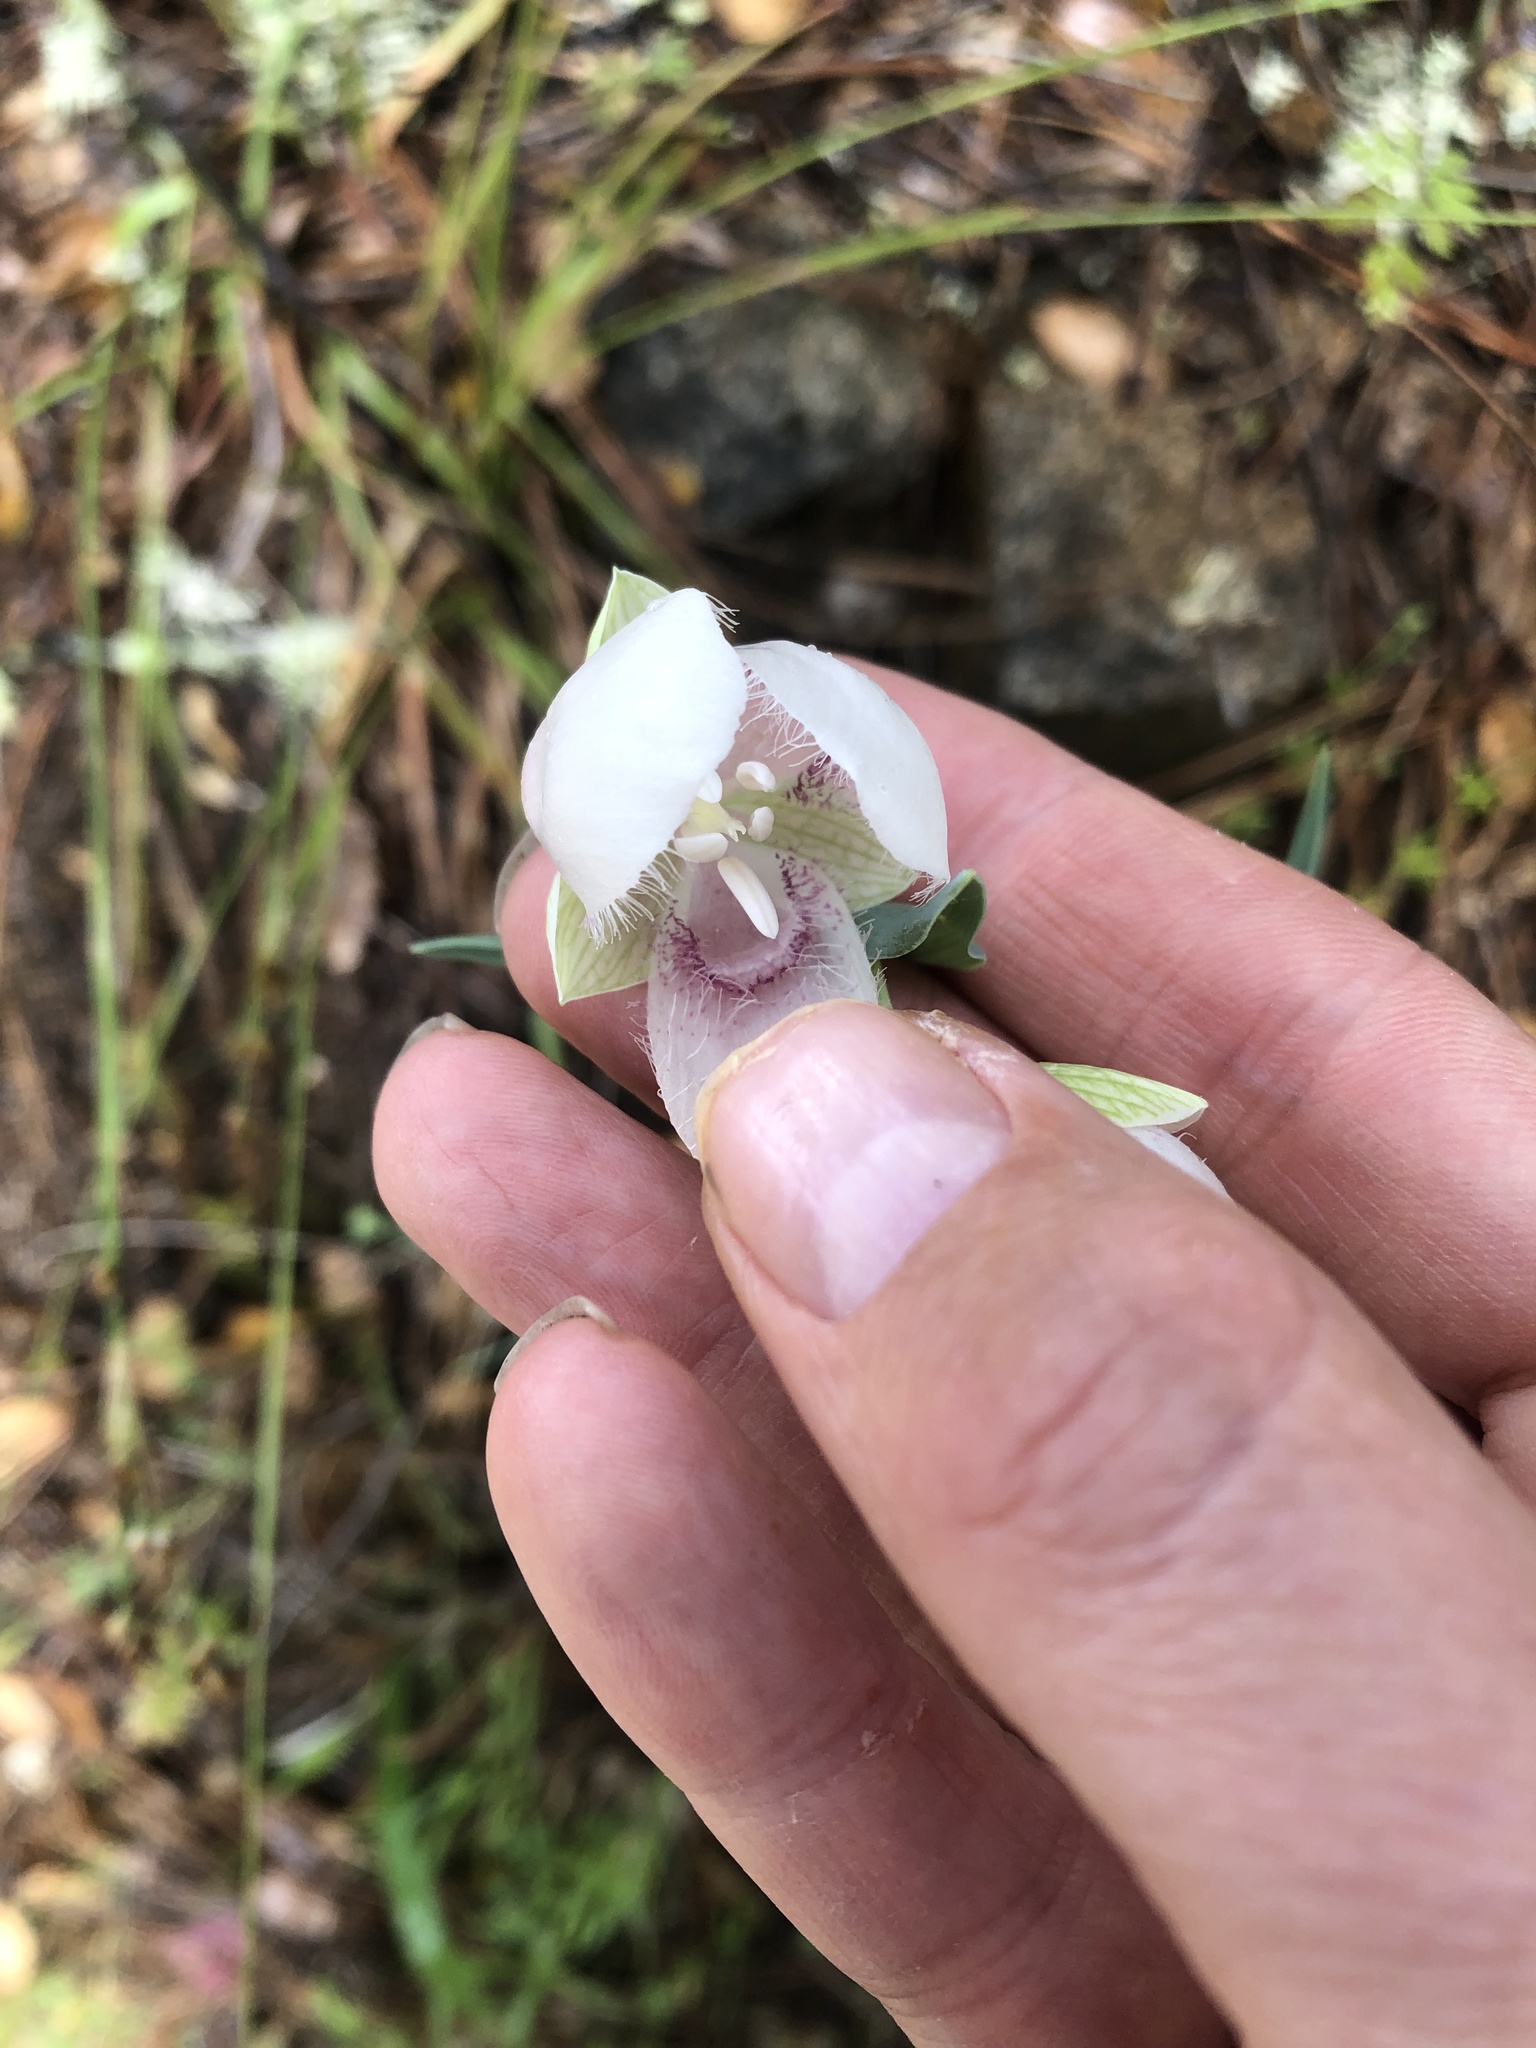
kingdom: Plantae
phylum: Tracheophyta
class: Liliopsida
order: Liliales
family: Liliaceae
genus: Calochortus
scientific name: Calochortus albus
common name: Fairy-lantern
